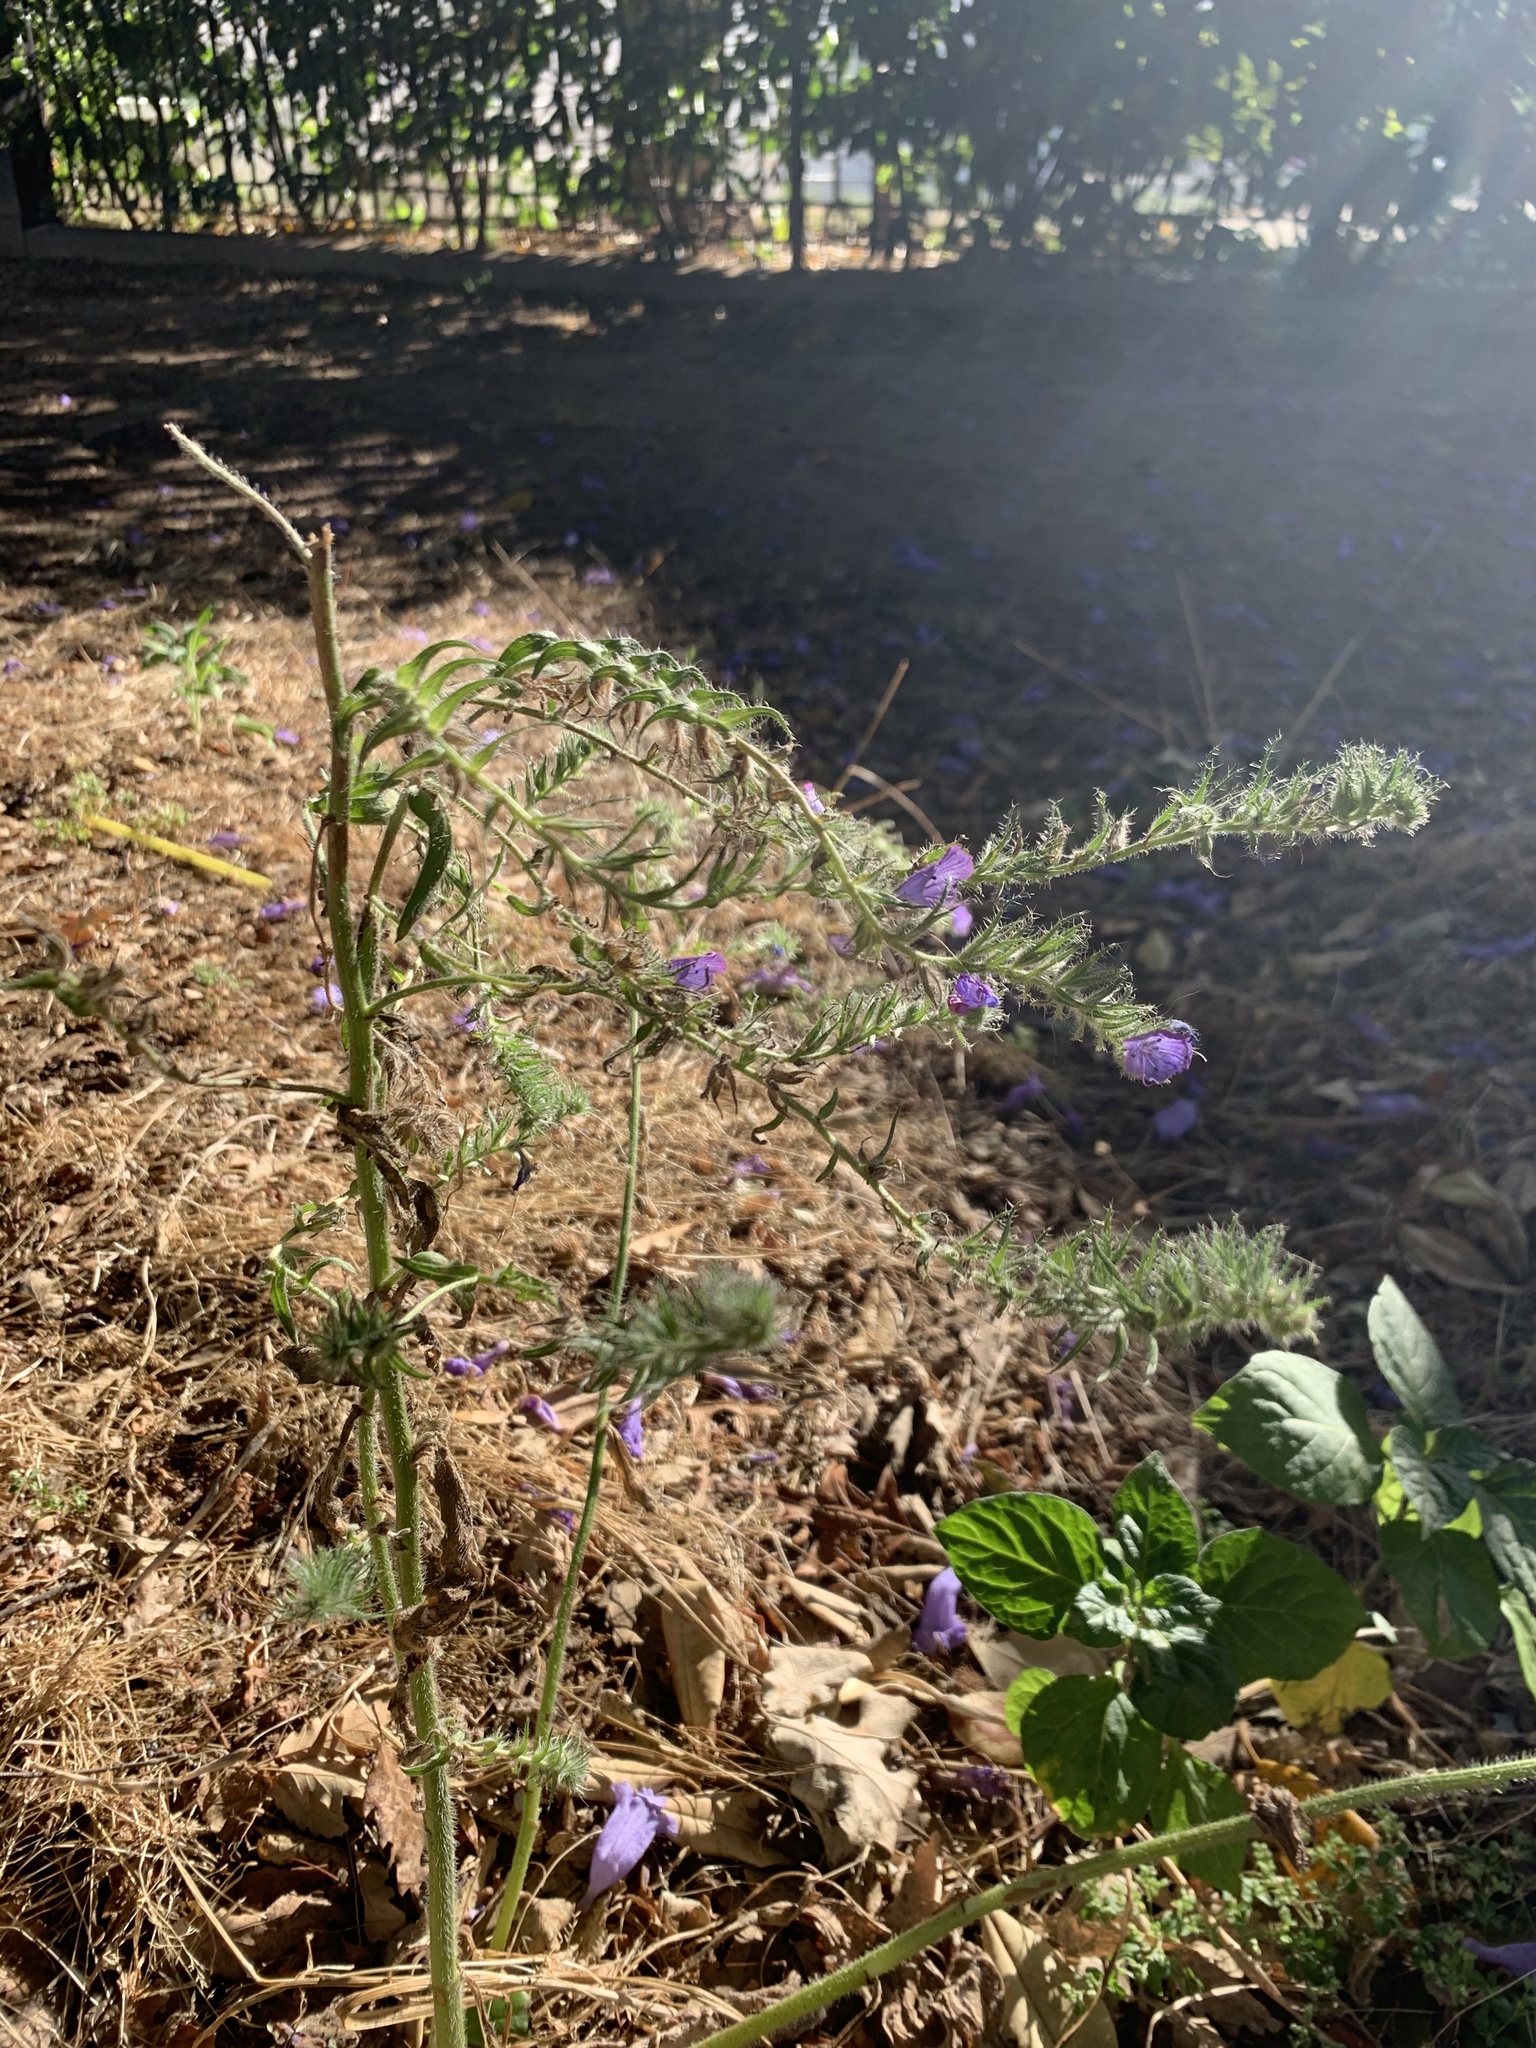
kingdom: Plantae
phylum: Tracheophyta
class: Magnoliopsida
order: Boraginales
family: Boraginaceae
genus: Echium
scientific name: Echium plantagineum
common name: Purple viper's-bugloss
